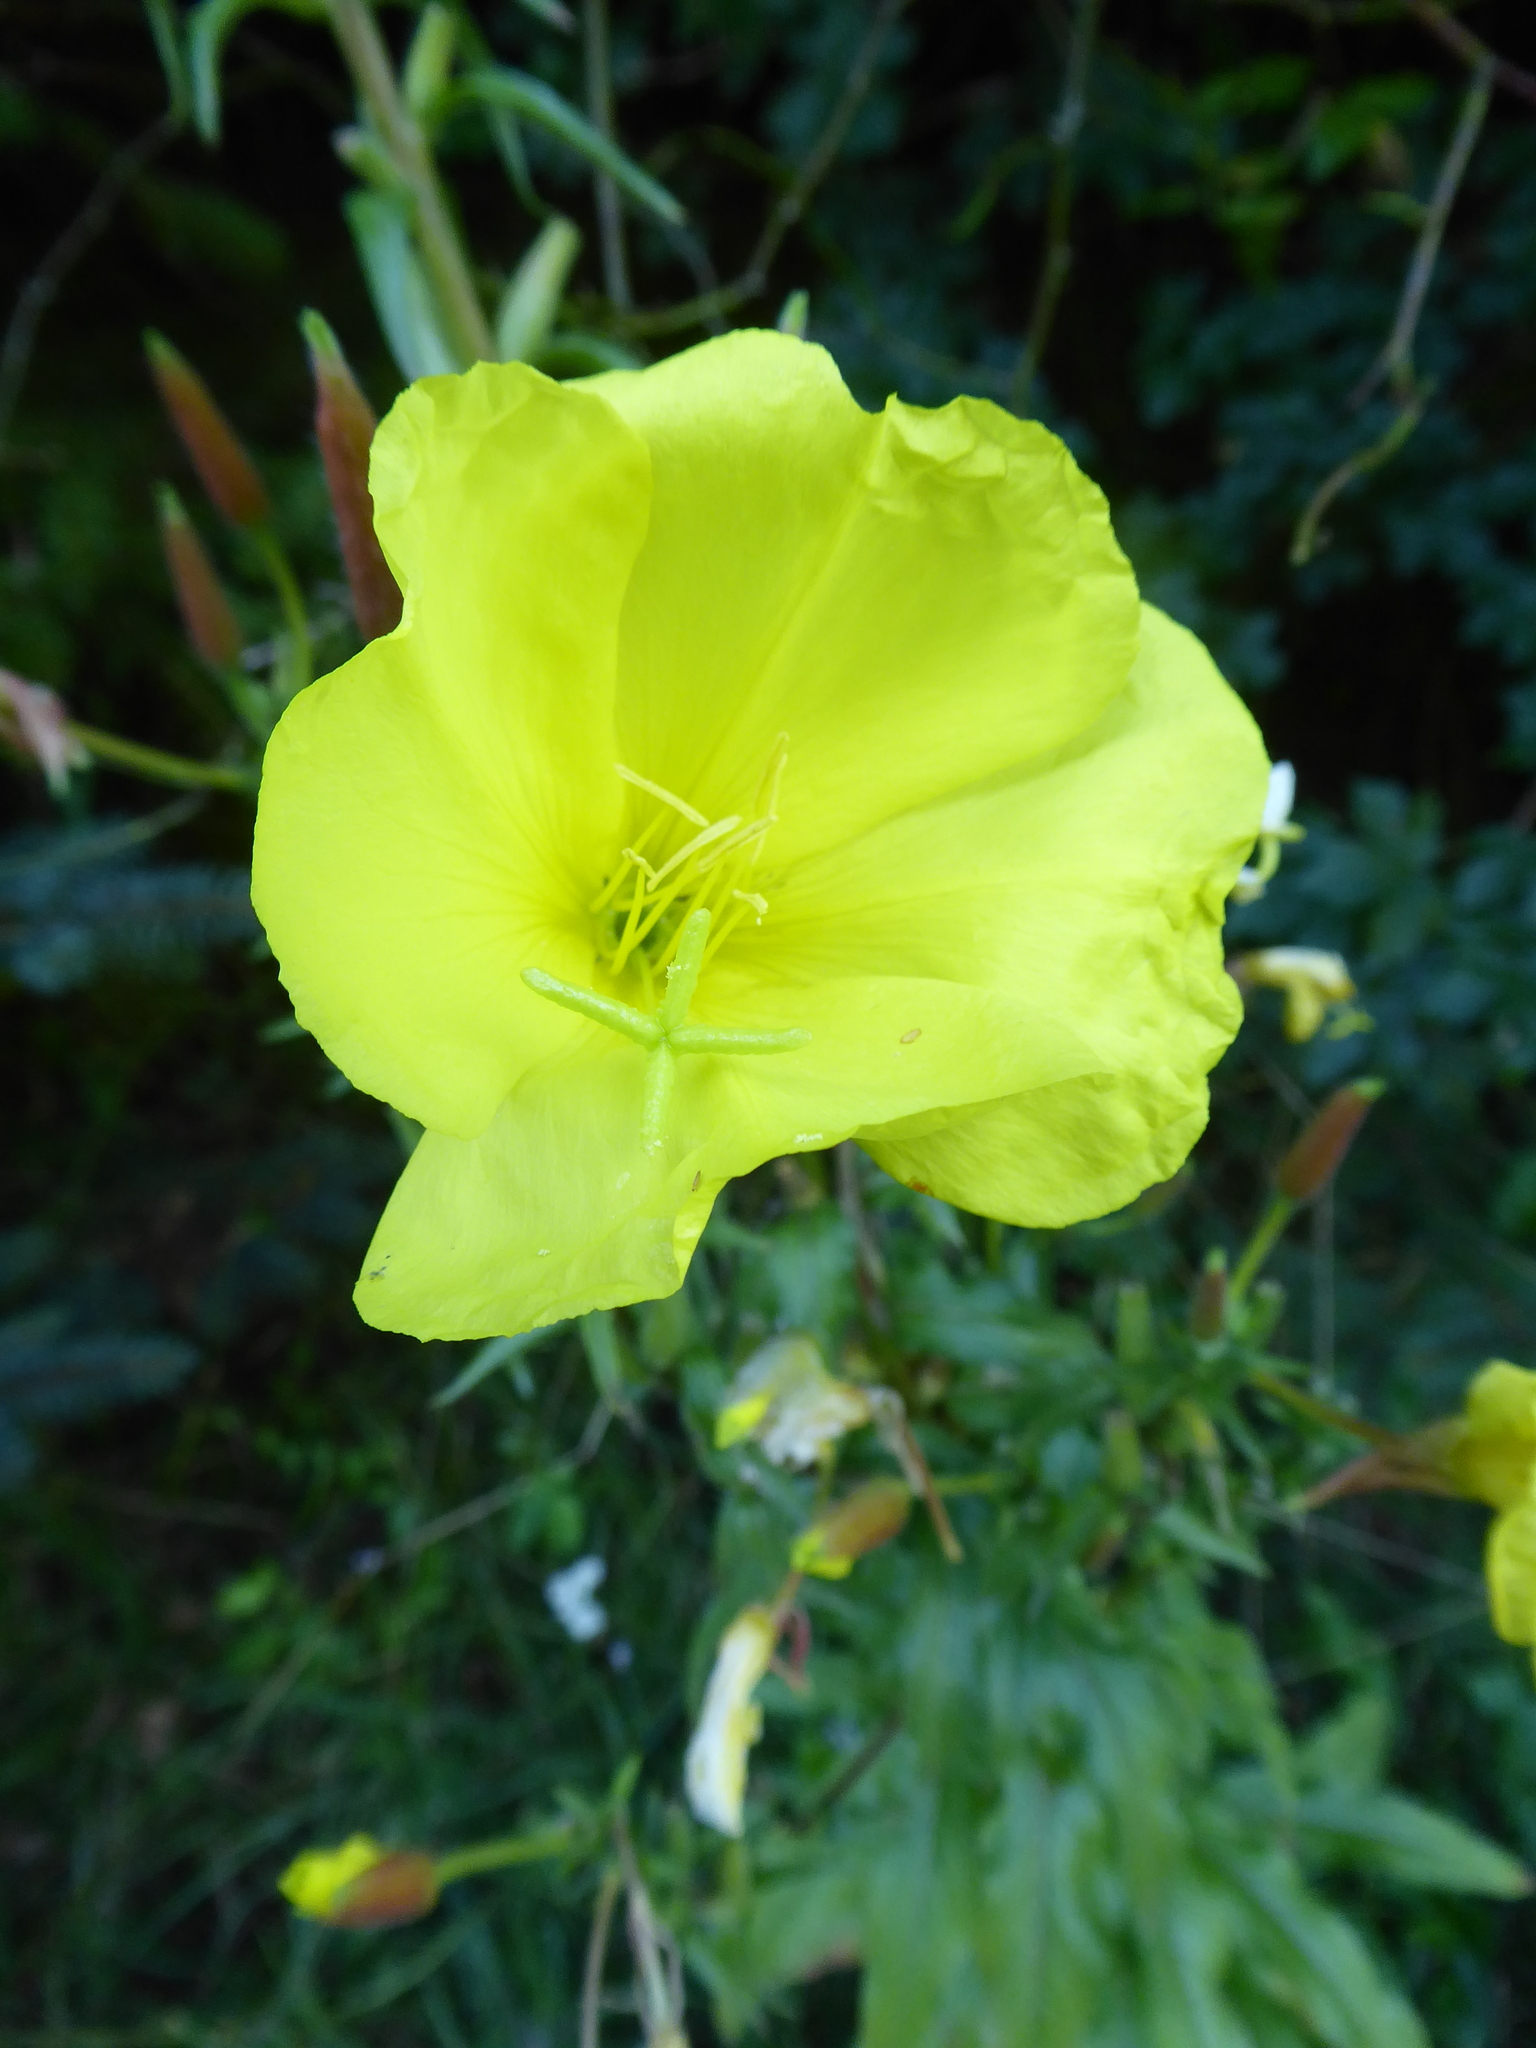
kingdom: Plantae
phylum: Tracheophyta
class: Magnoliopsida
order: Myrtales
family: Onagraceae
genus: Oenothera
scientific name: Oenothera glazioviana
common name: Large-flowered evening-primrose
